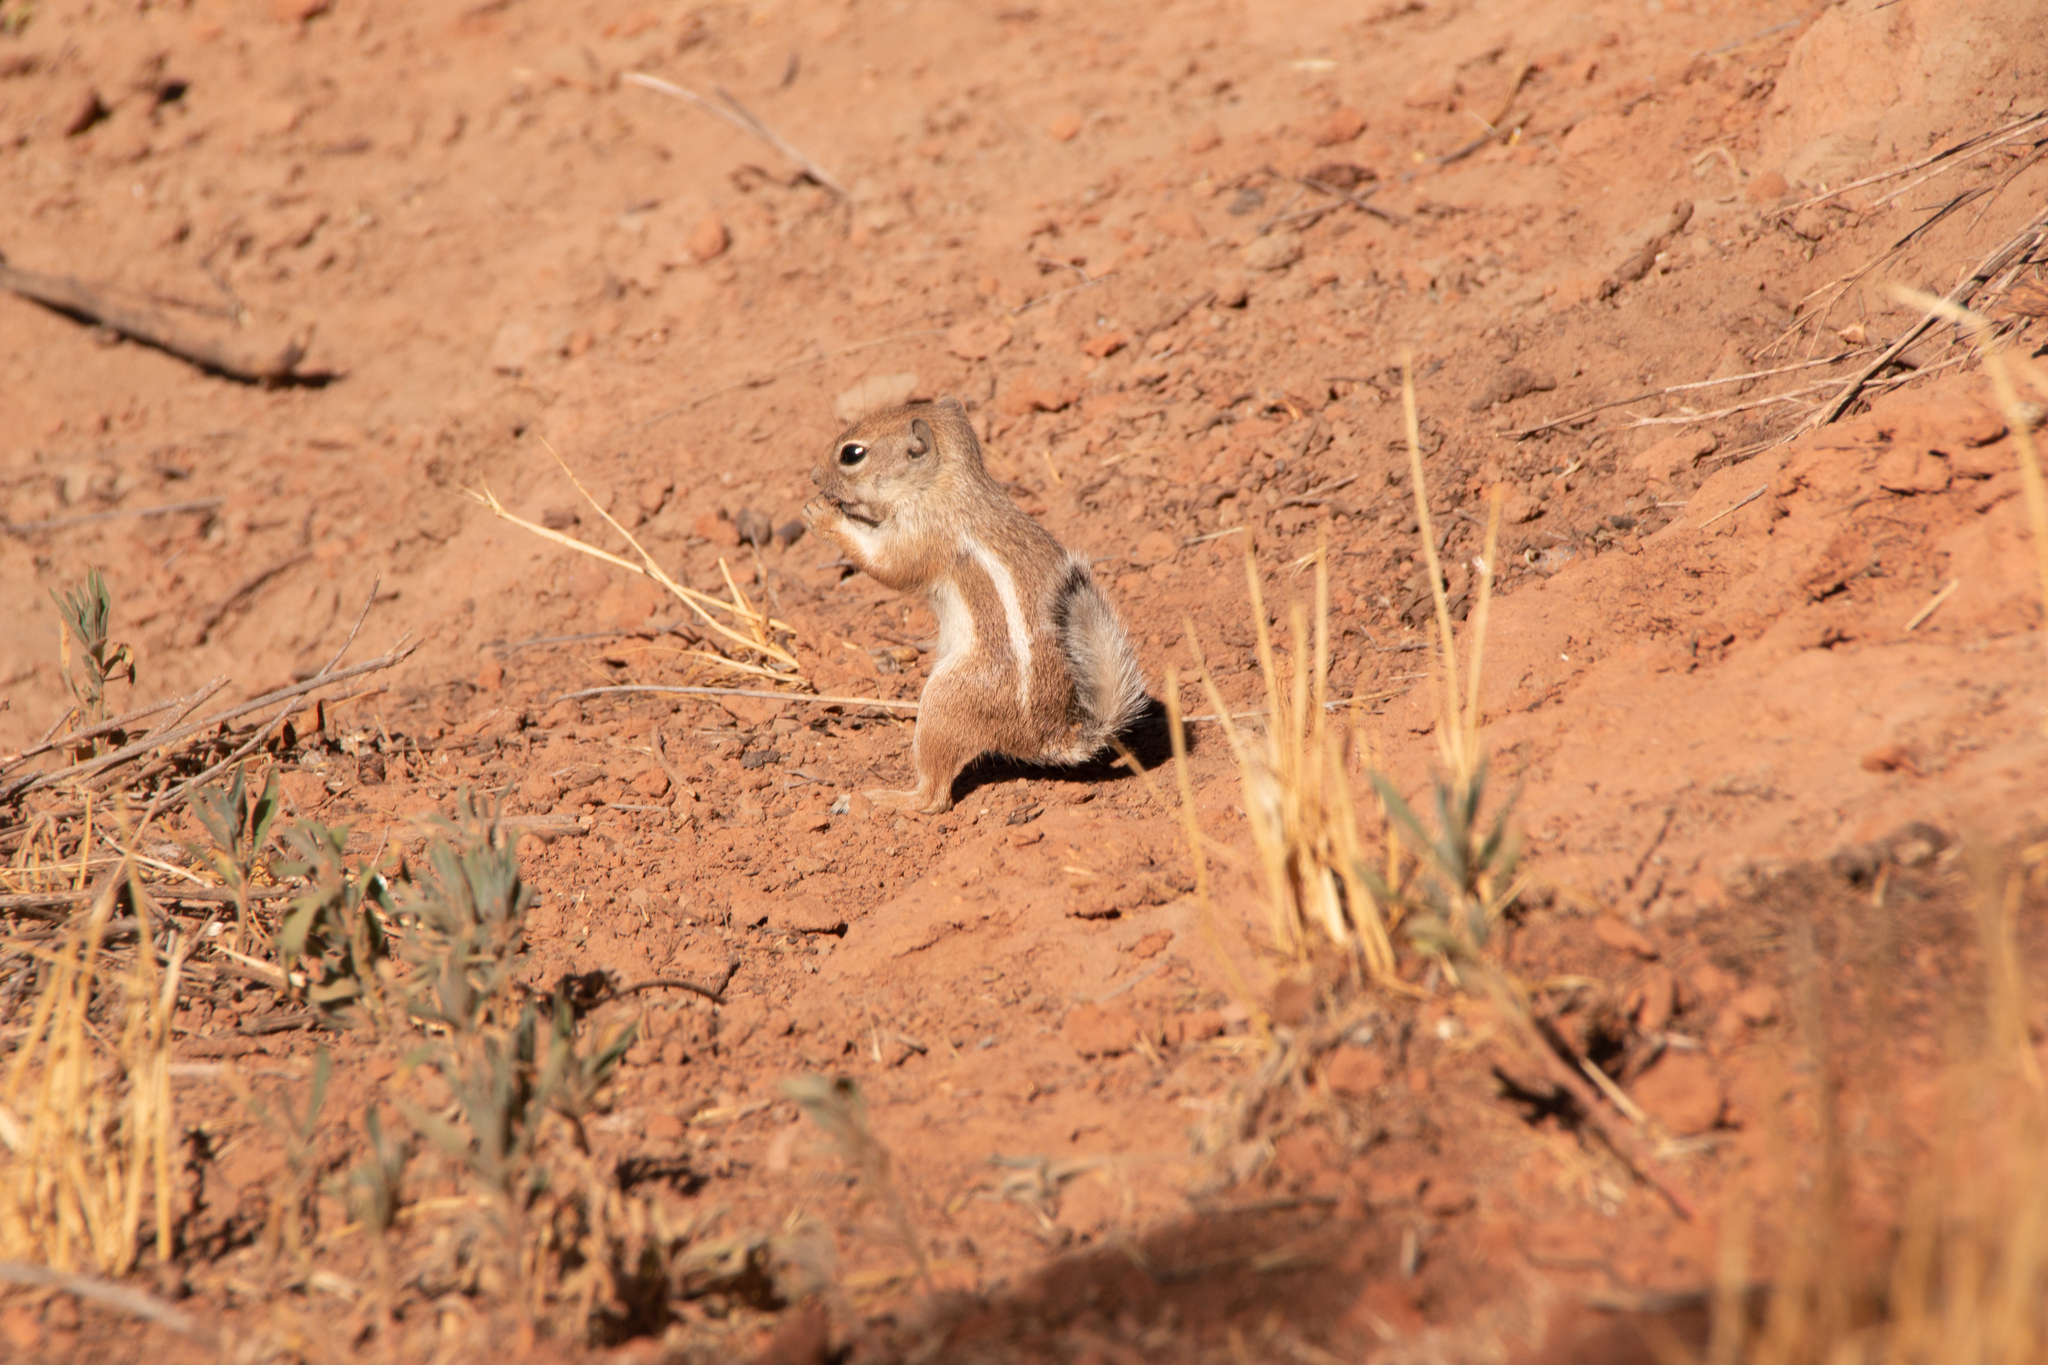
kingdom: Animalia
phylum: Chordata
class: Mammalia
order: Rodentia
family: Sciuridae
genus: Ammospermophilus
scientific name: Ammospermophilus leucurus
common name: White-tailed antelope squirrel
